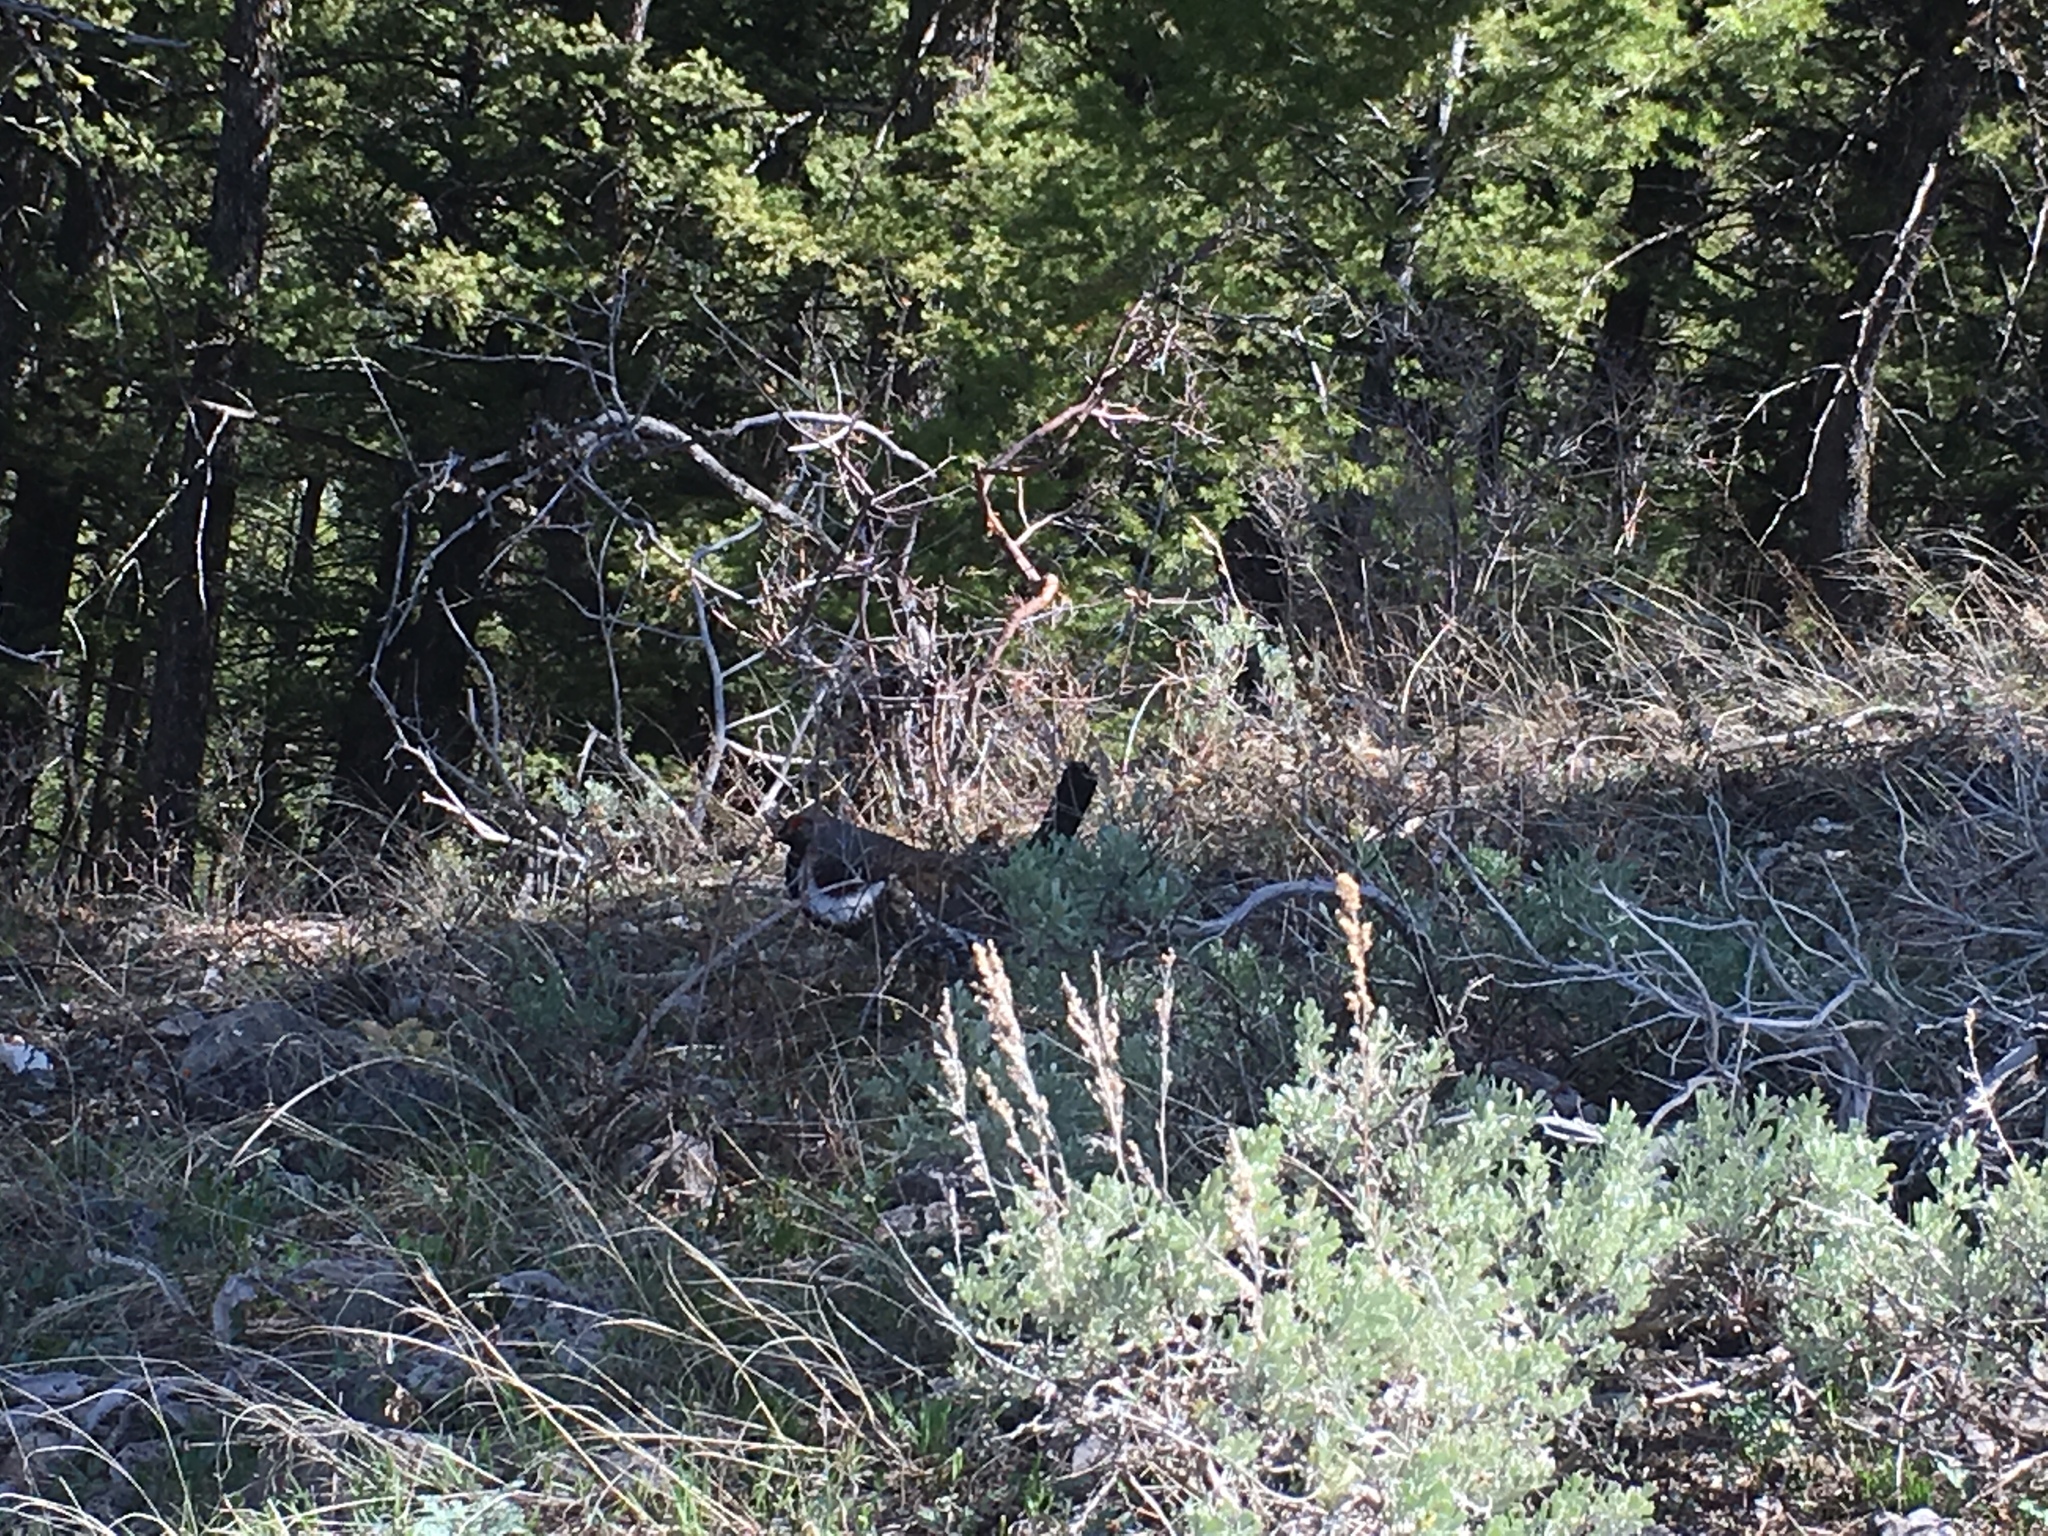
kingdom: Animalia
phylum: Chordata
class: Aves
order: Galliformes
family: Phasianidae
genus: Dendragapus
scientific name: Dendragapus obscurus
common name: Dusky grouse
